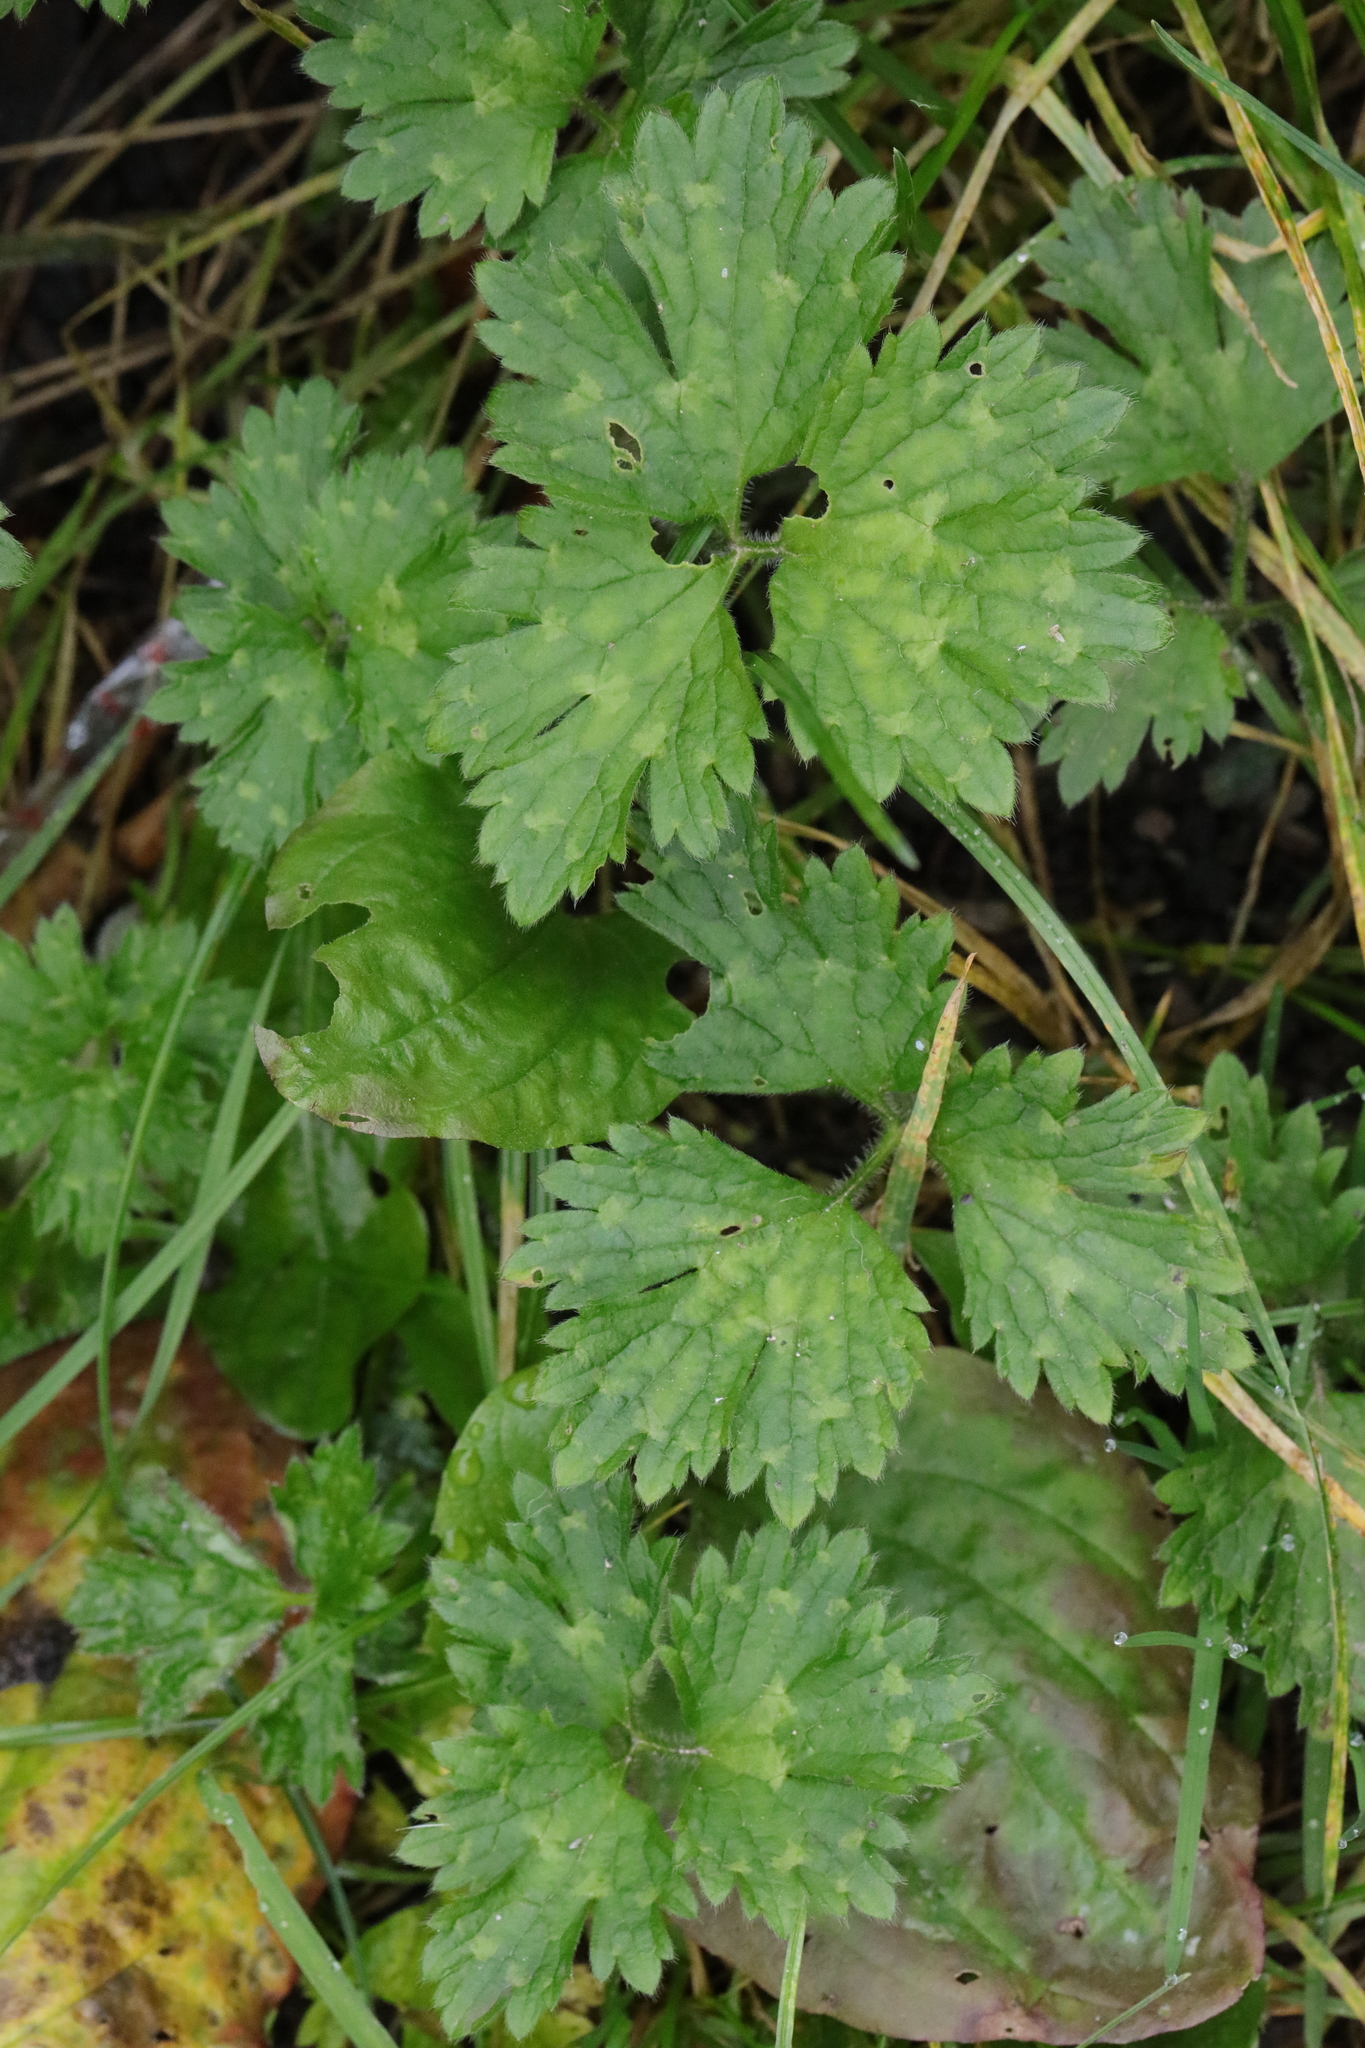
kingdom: Plantae
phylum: Tracheophyta
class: Magnoliopsida
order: Ranunculales
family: Ranunculaceae
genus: Ranunculus
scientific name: Ranunculus repens
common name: Creeping buttercup
